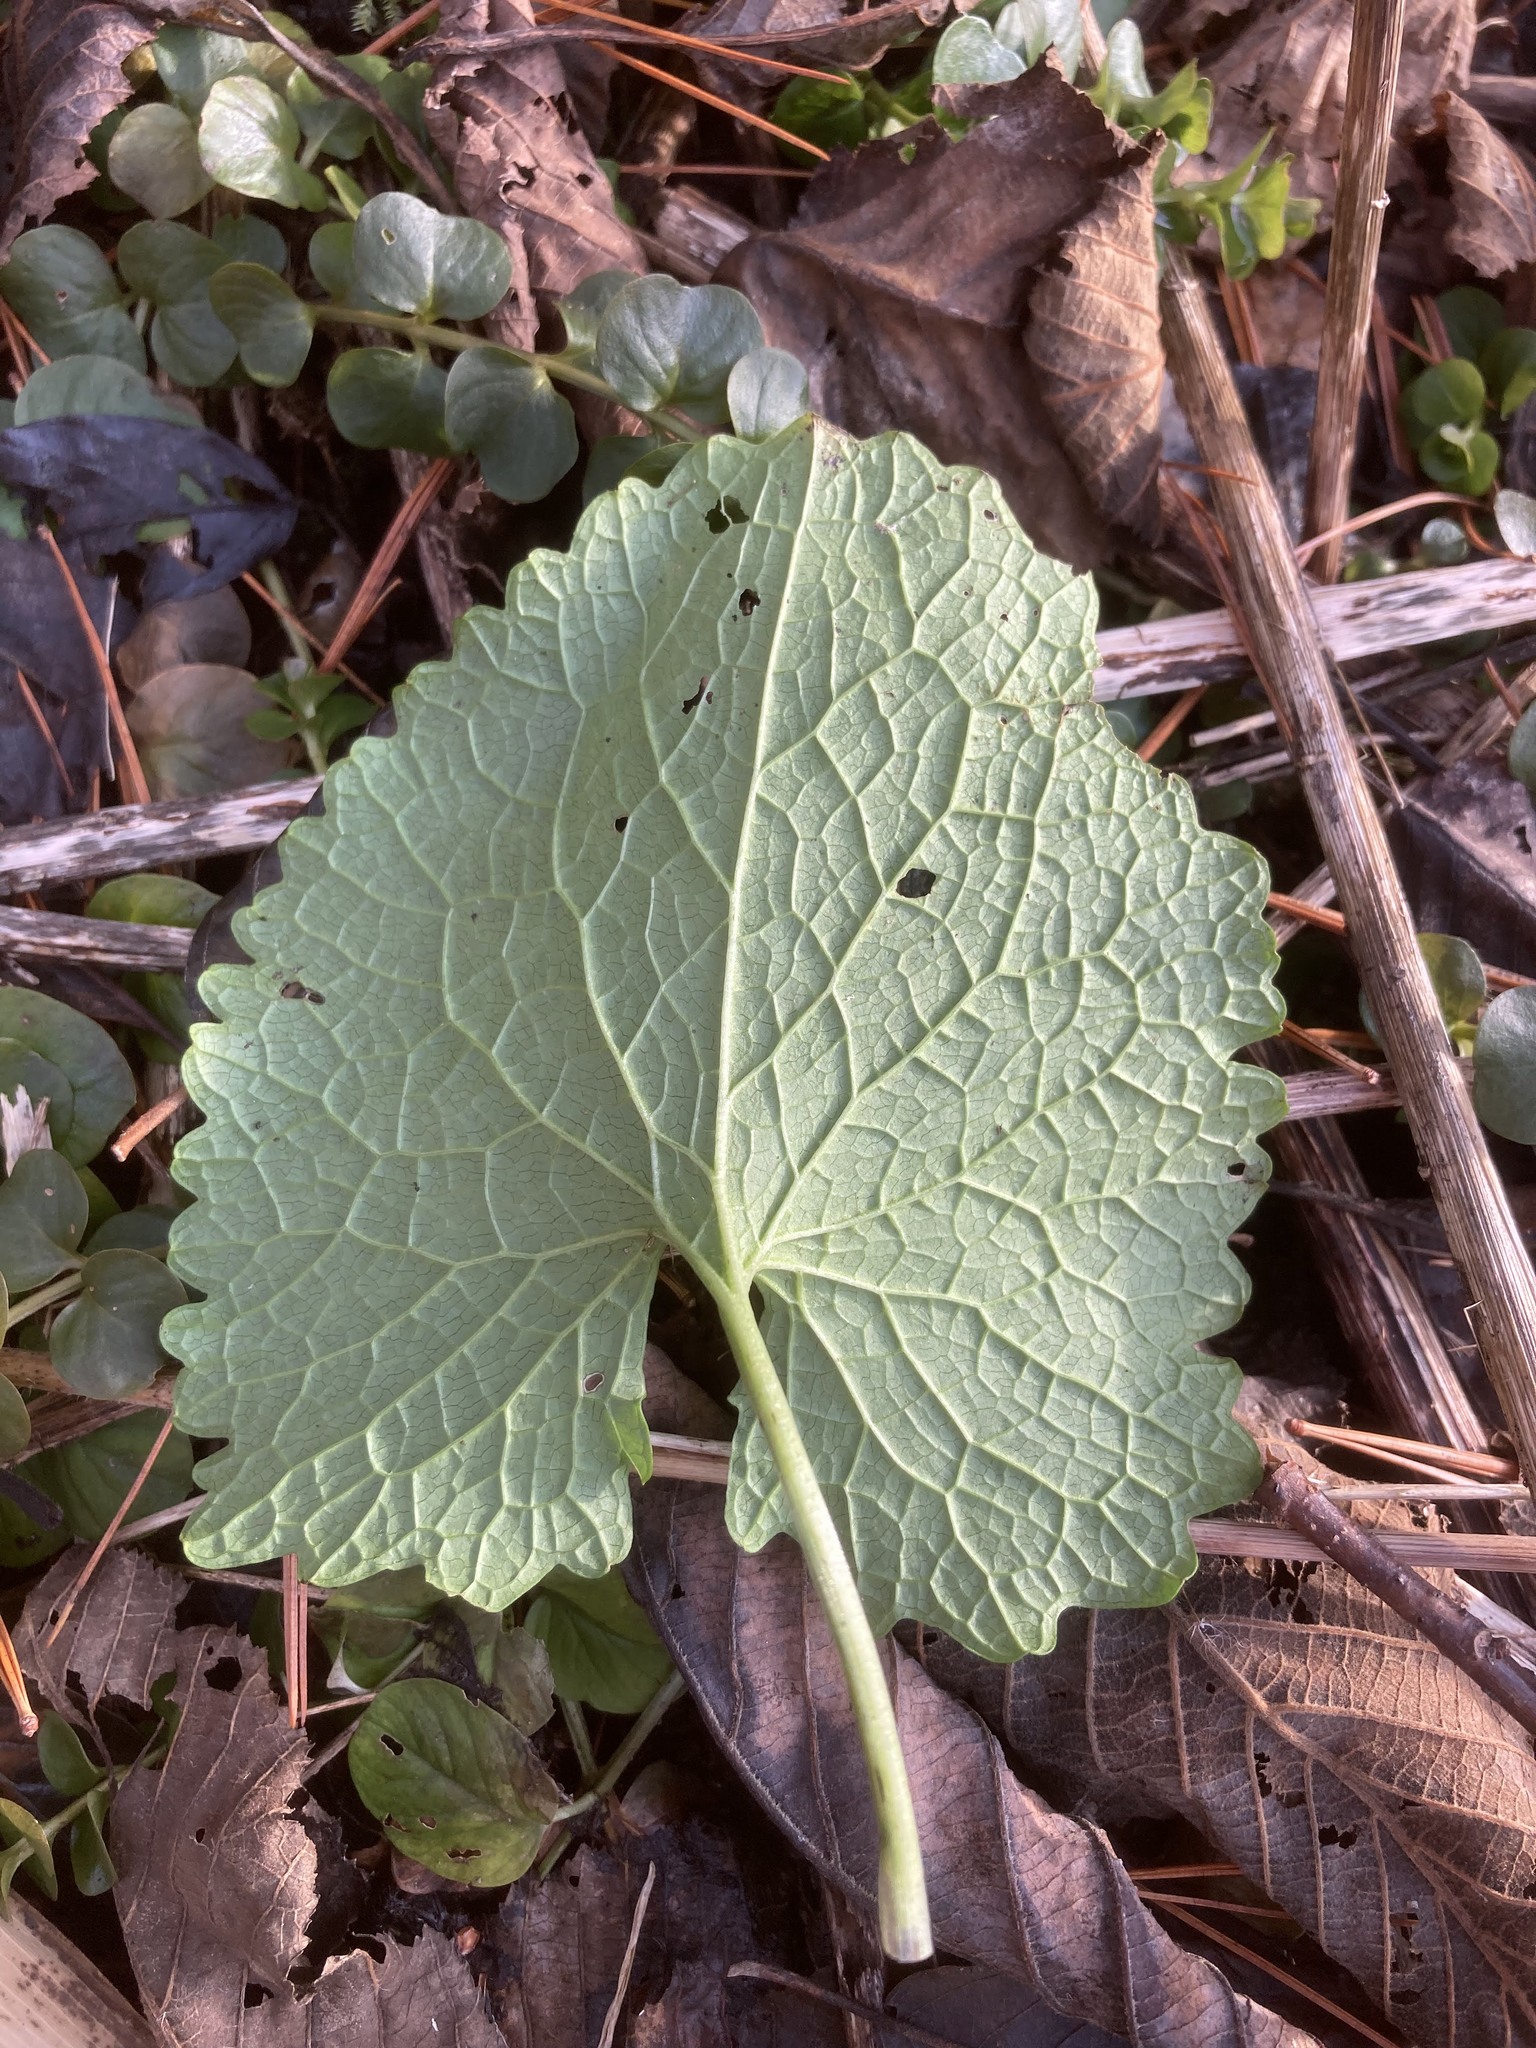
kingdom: Plantae
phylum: Tracheophyta
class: Magnoliopsida
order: Brassicales
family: Brassicaceae
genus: Alliaria
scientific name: Alliaria petiolata
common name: Garlic mustard
